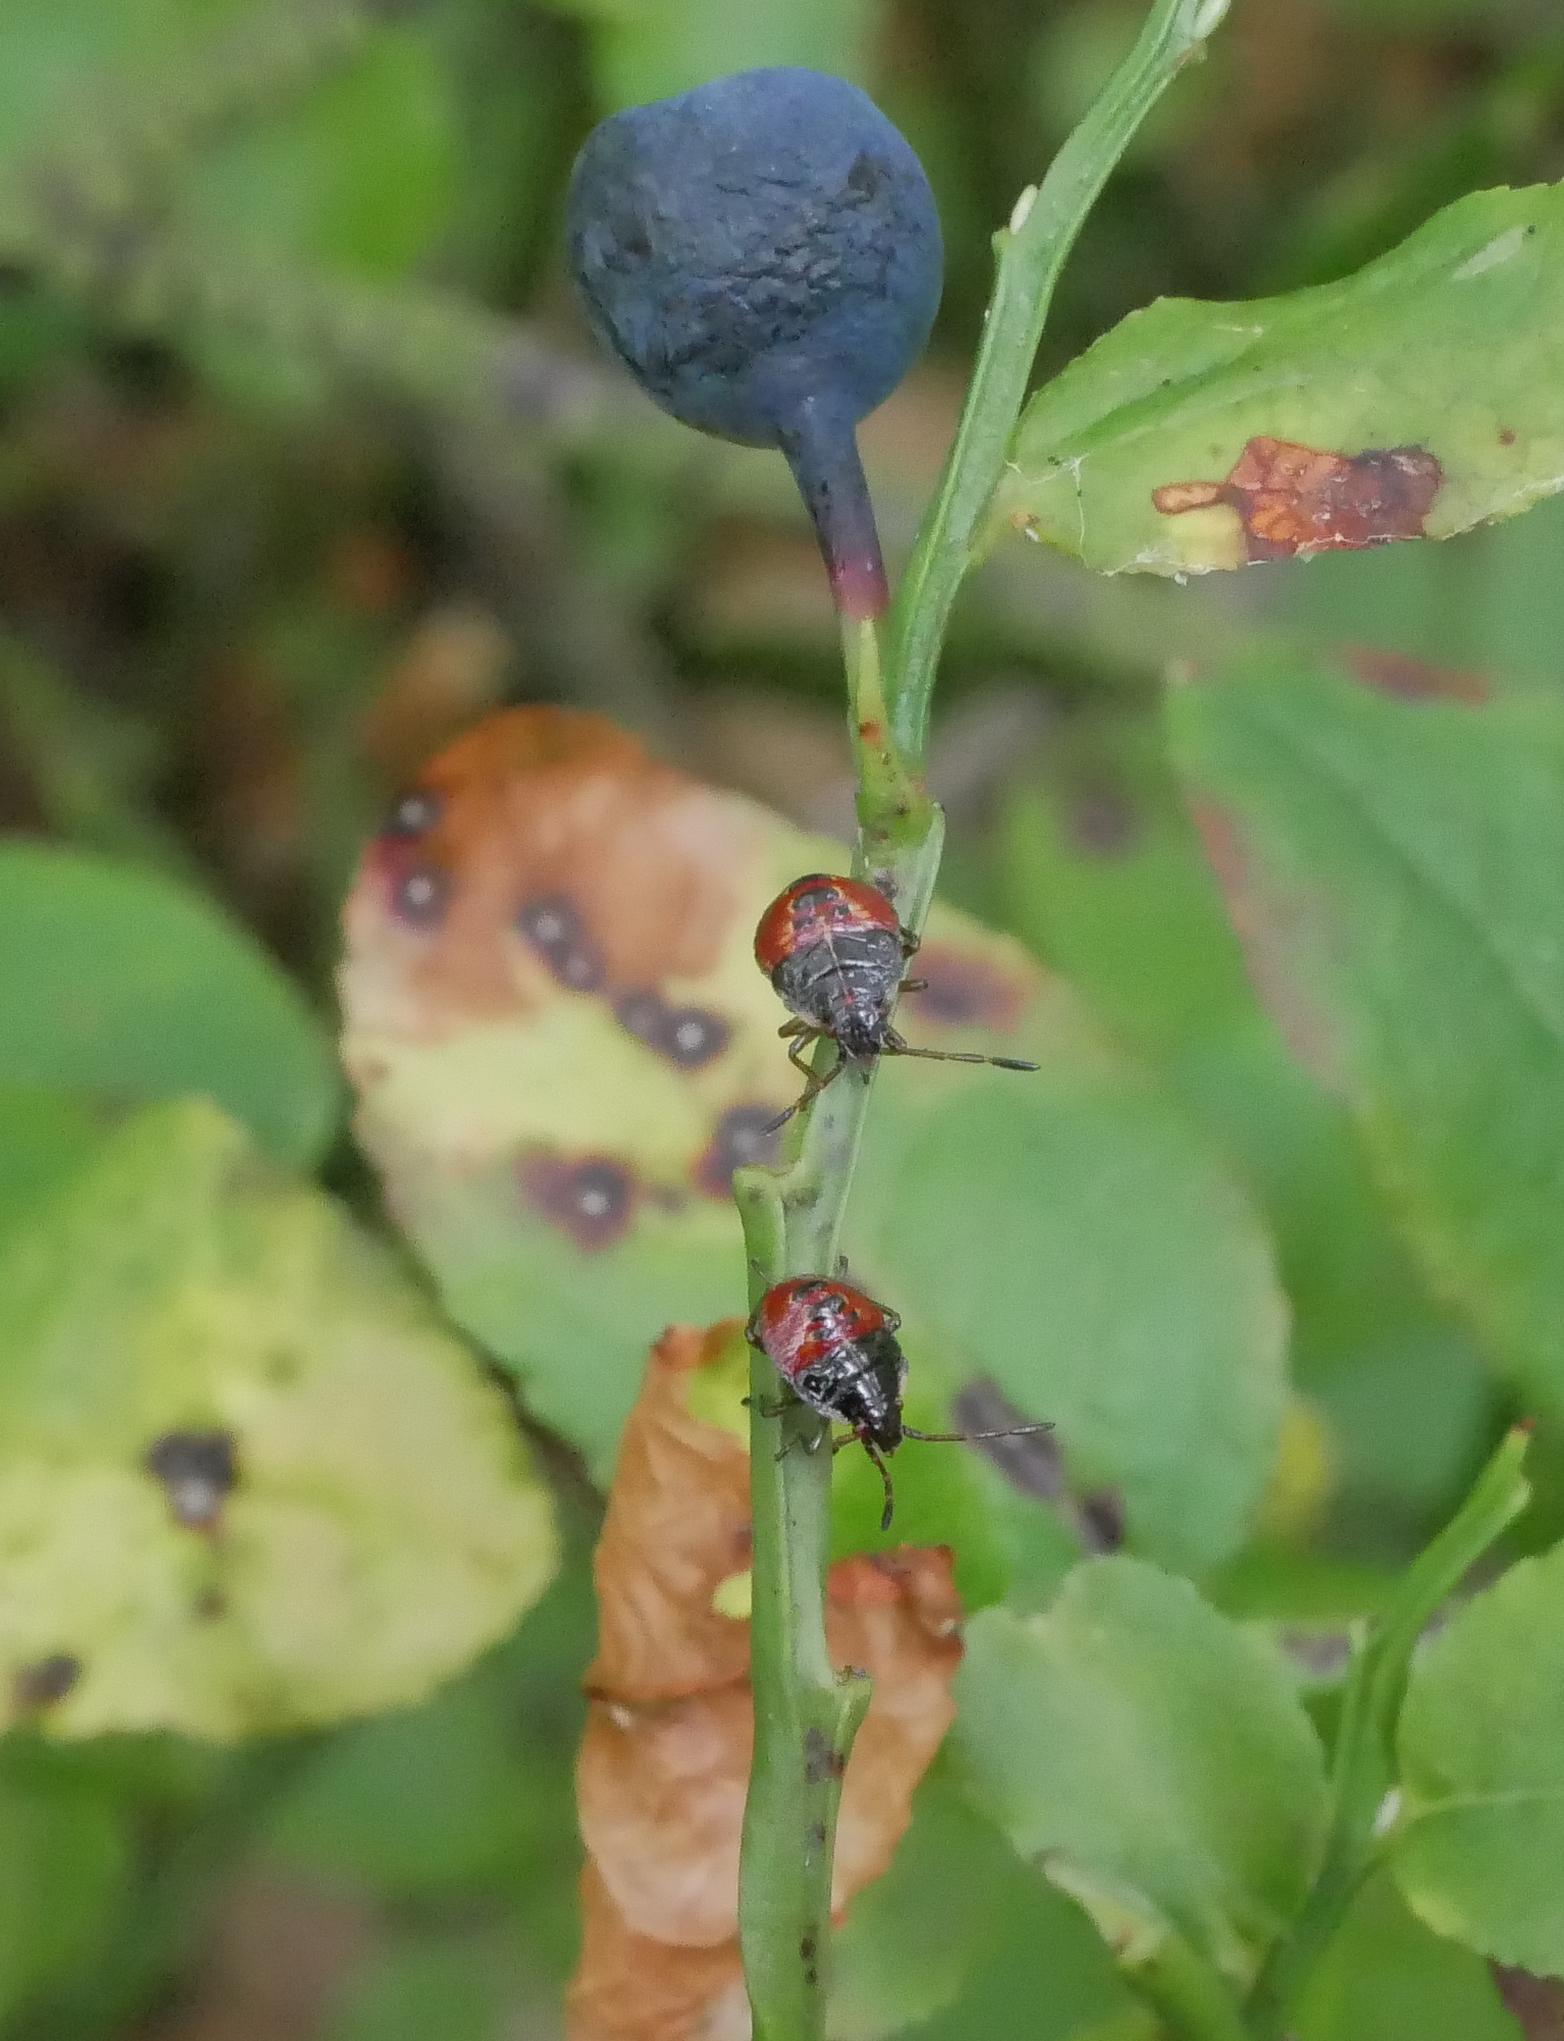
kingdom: Animalia
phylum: Arthropoda
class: Insecta
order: Hemiptera
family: Acanthosomatidae
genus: Elasmucha
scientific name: Elasmucha ferrugata
